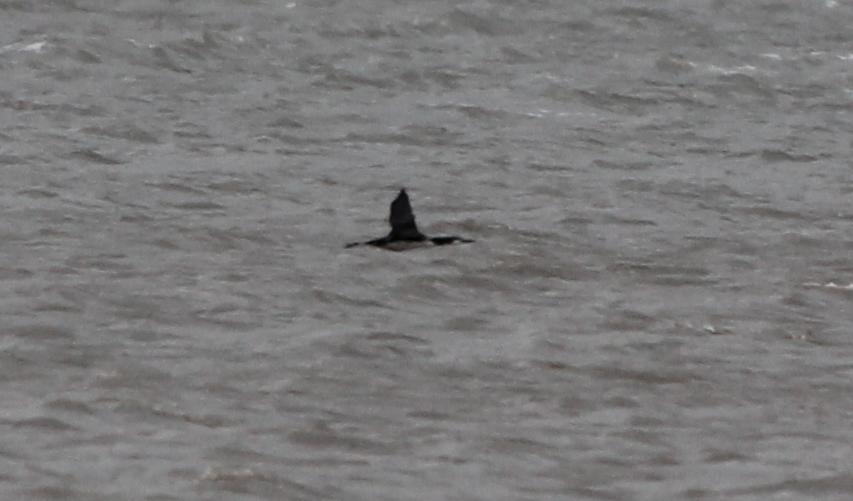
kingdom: Animalia
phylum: Chordata
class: Aves
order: Gaviiformes
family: Gaviidae
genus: Gavia
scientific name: Gavia immer
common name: Common loon
